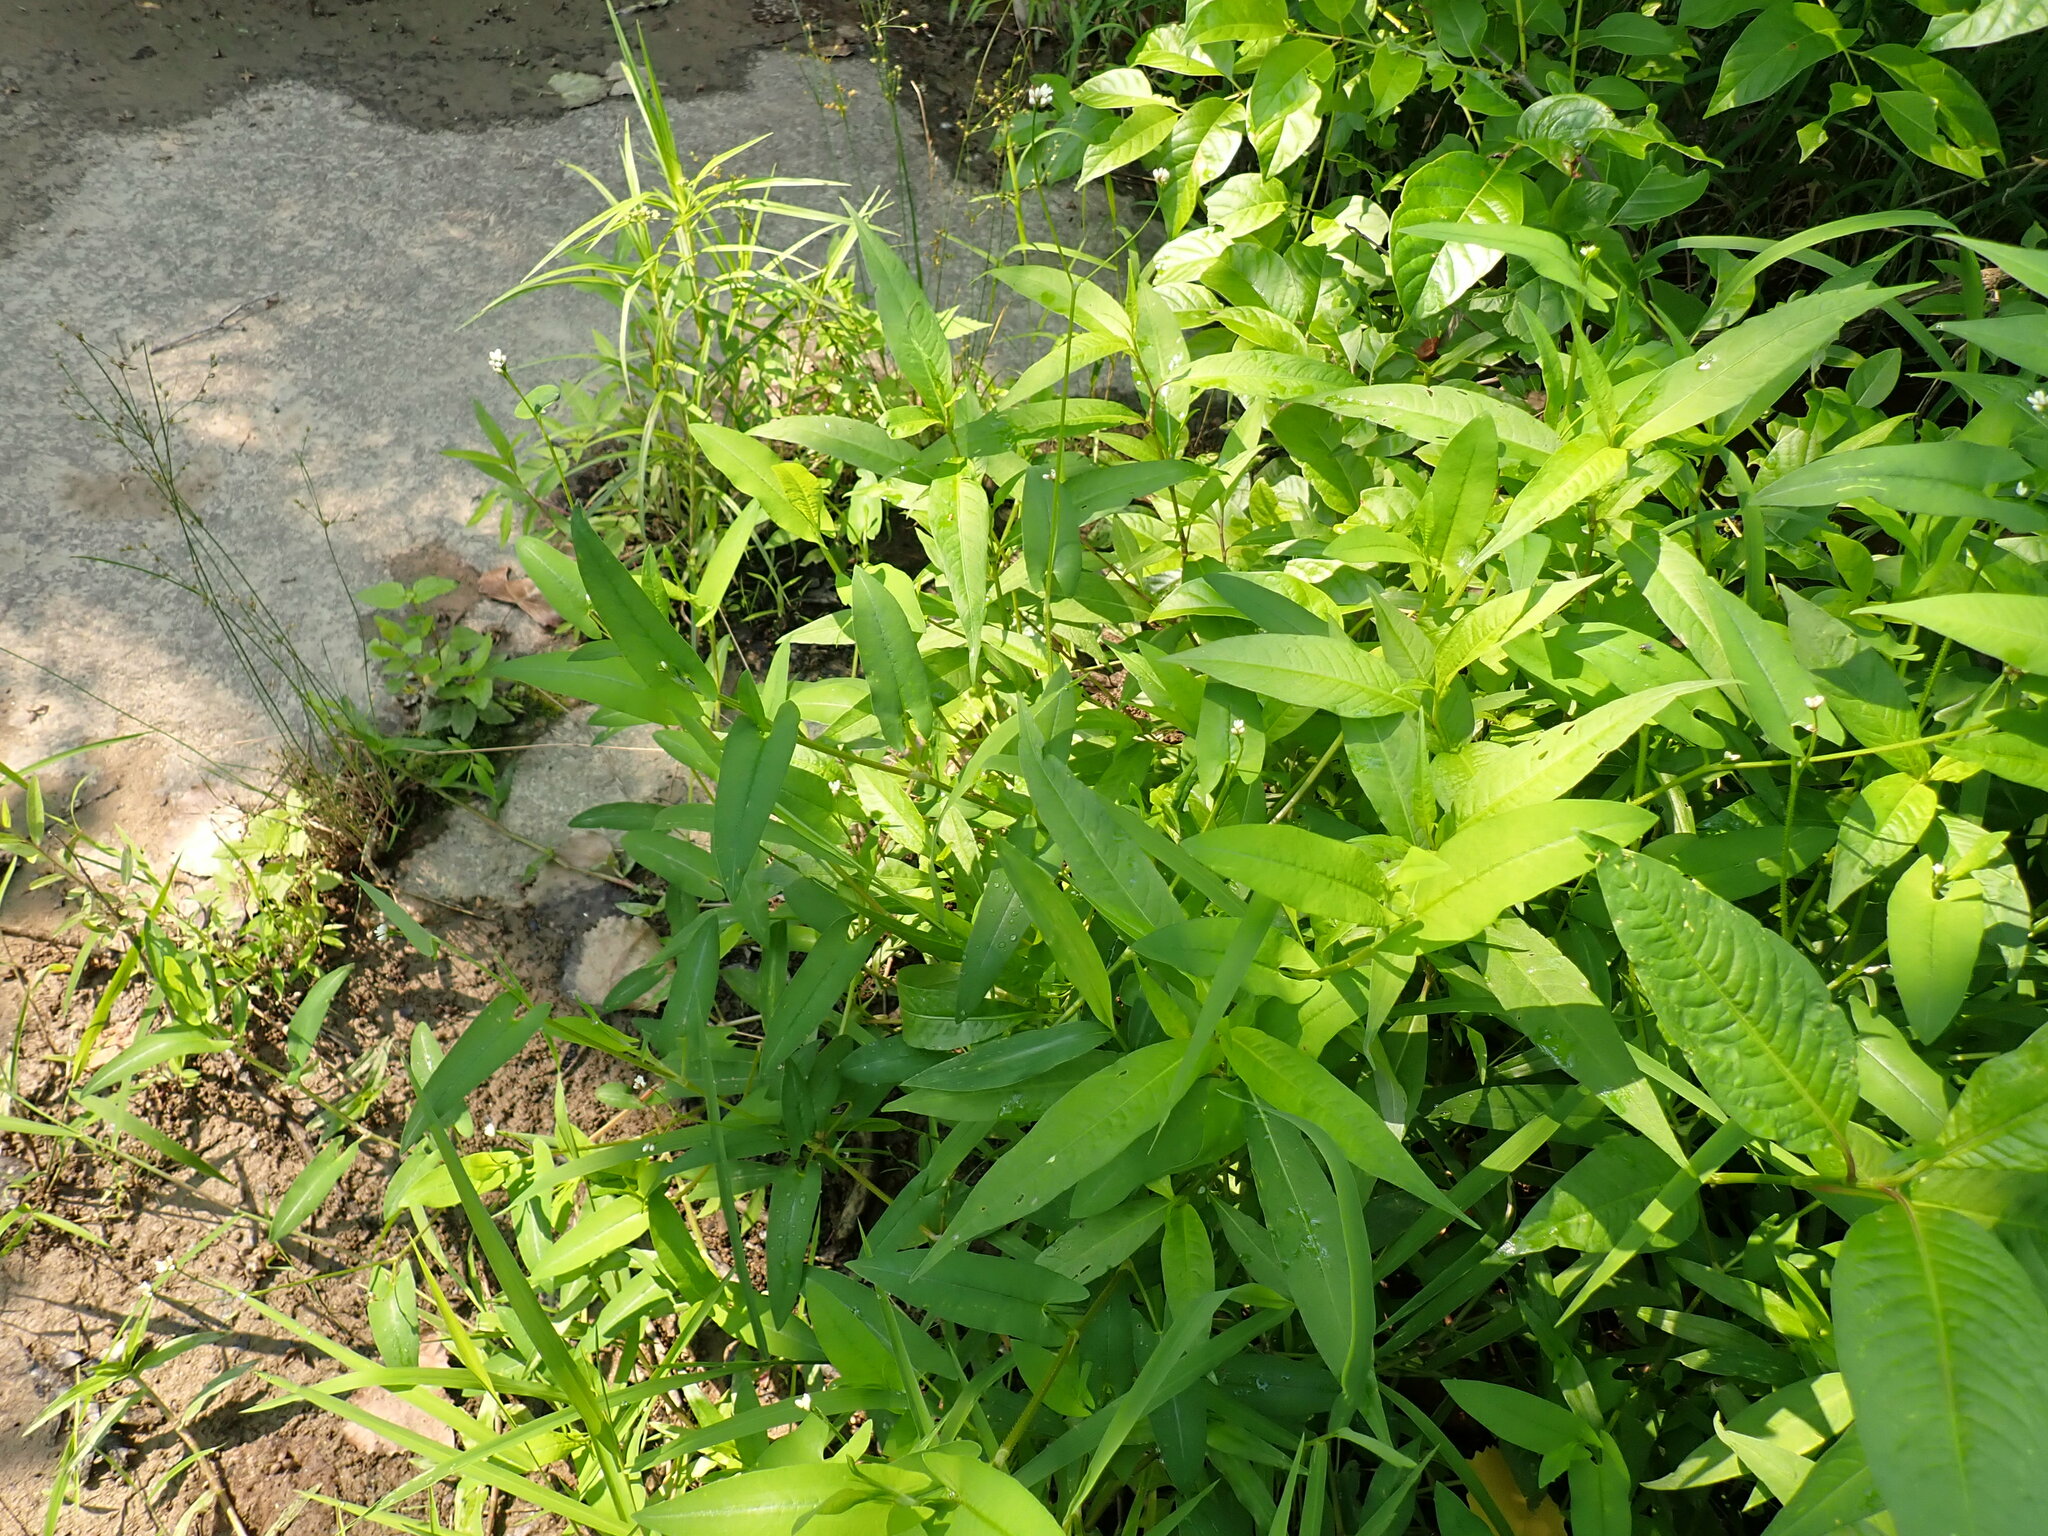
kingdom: Plantae
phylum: Tracheophyta
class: Magnoliopsida
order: Caryophyllales
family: Polygonaceae
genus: Persicaria
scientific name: Persicaria sagittata
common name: American tearthumb
